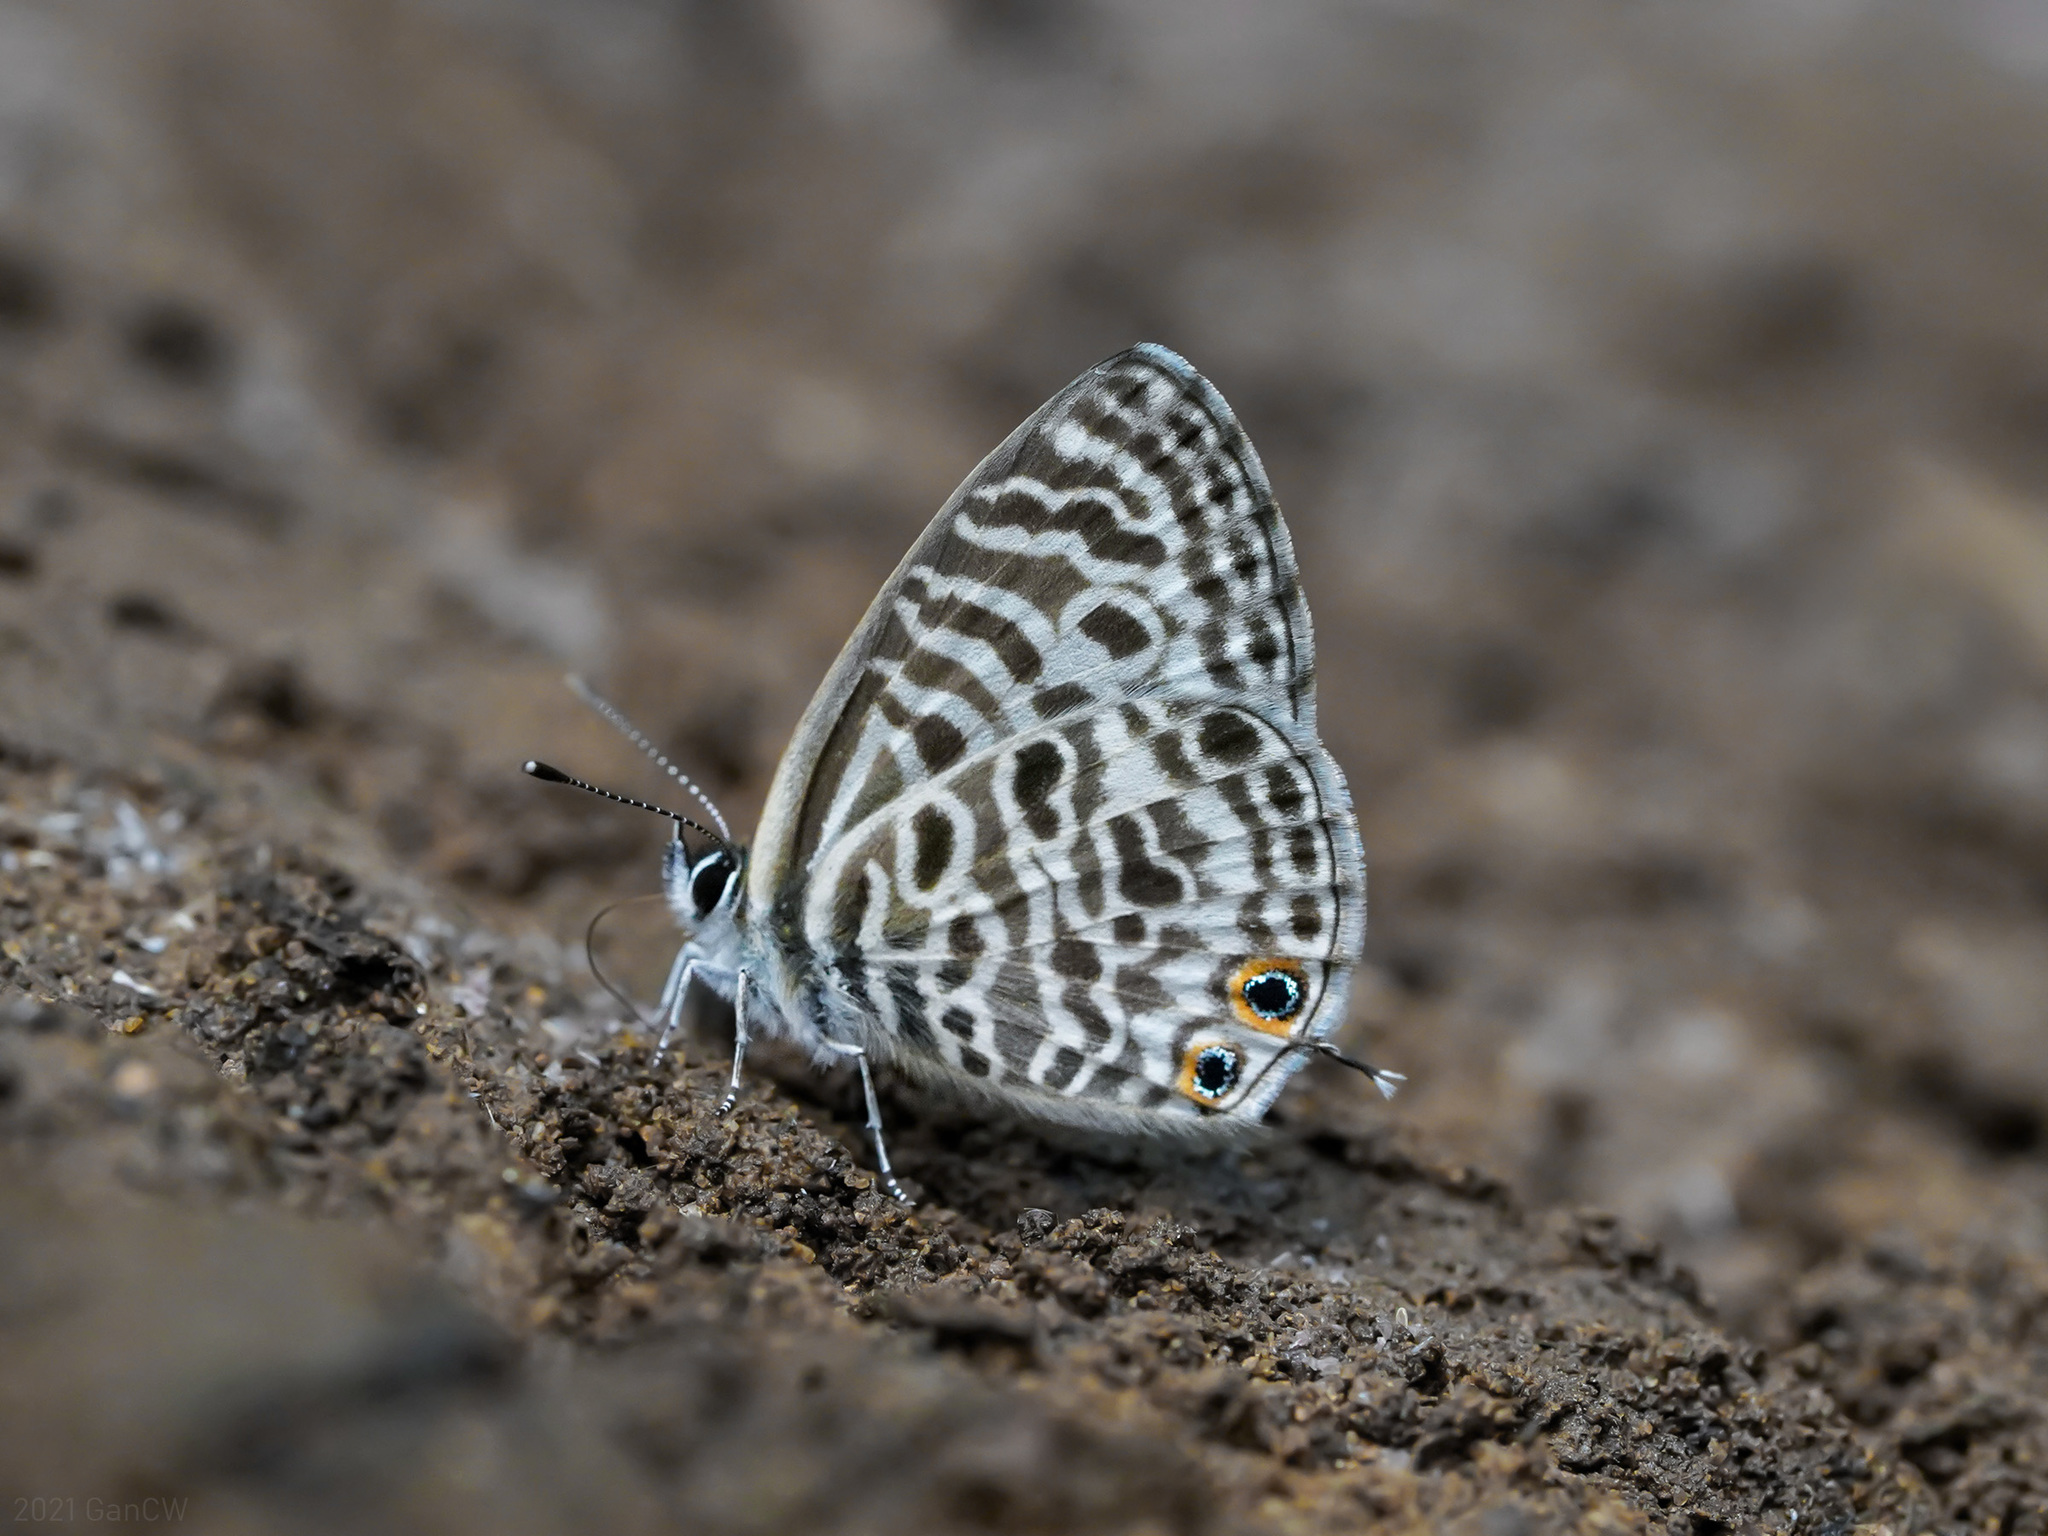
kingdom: Animalia
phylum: Arthropoda
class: Insecta
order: Lepidoptera
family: Lycaenidae
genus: Leptotes
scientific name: Leptotes plinius
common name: Zebra blue
